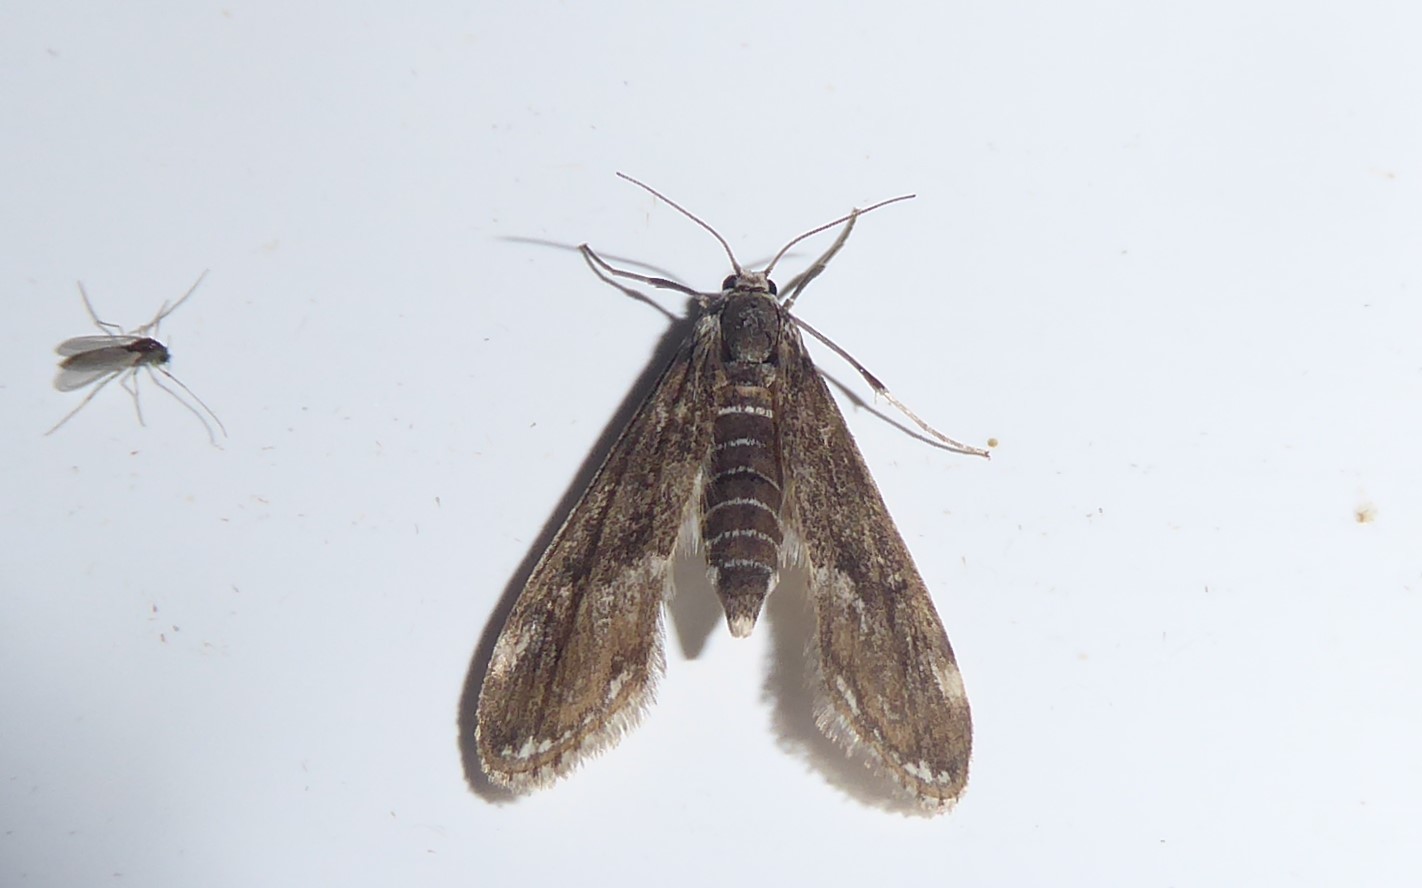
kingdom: Animalia
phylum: Arthropoda
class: Insecta
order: Lepidoptera
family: Crambidae
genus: Hygraula
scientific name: Hygraula nitens
